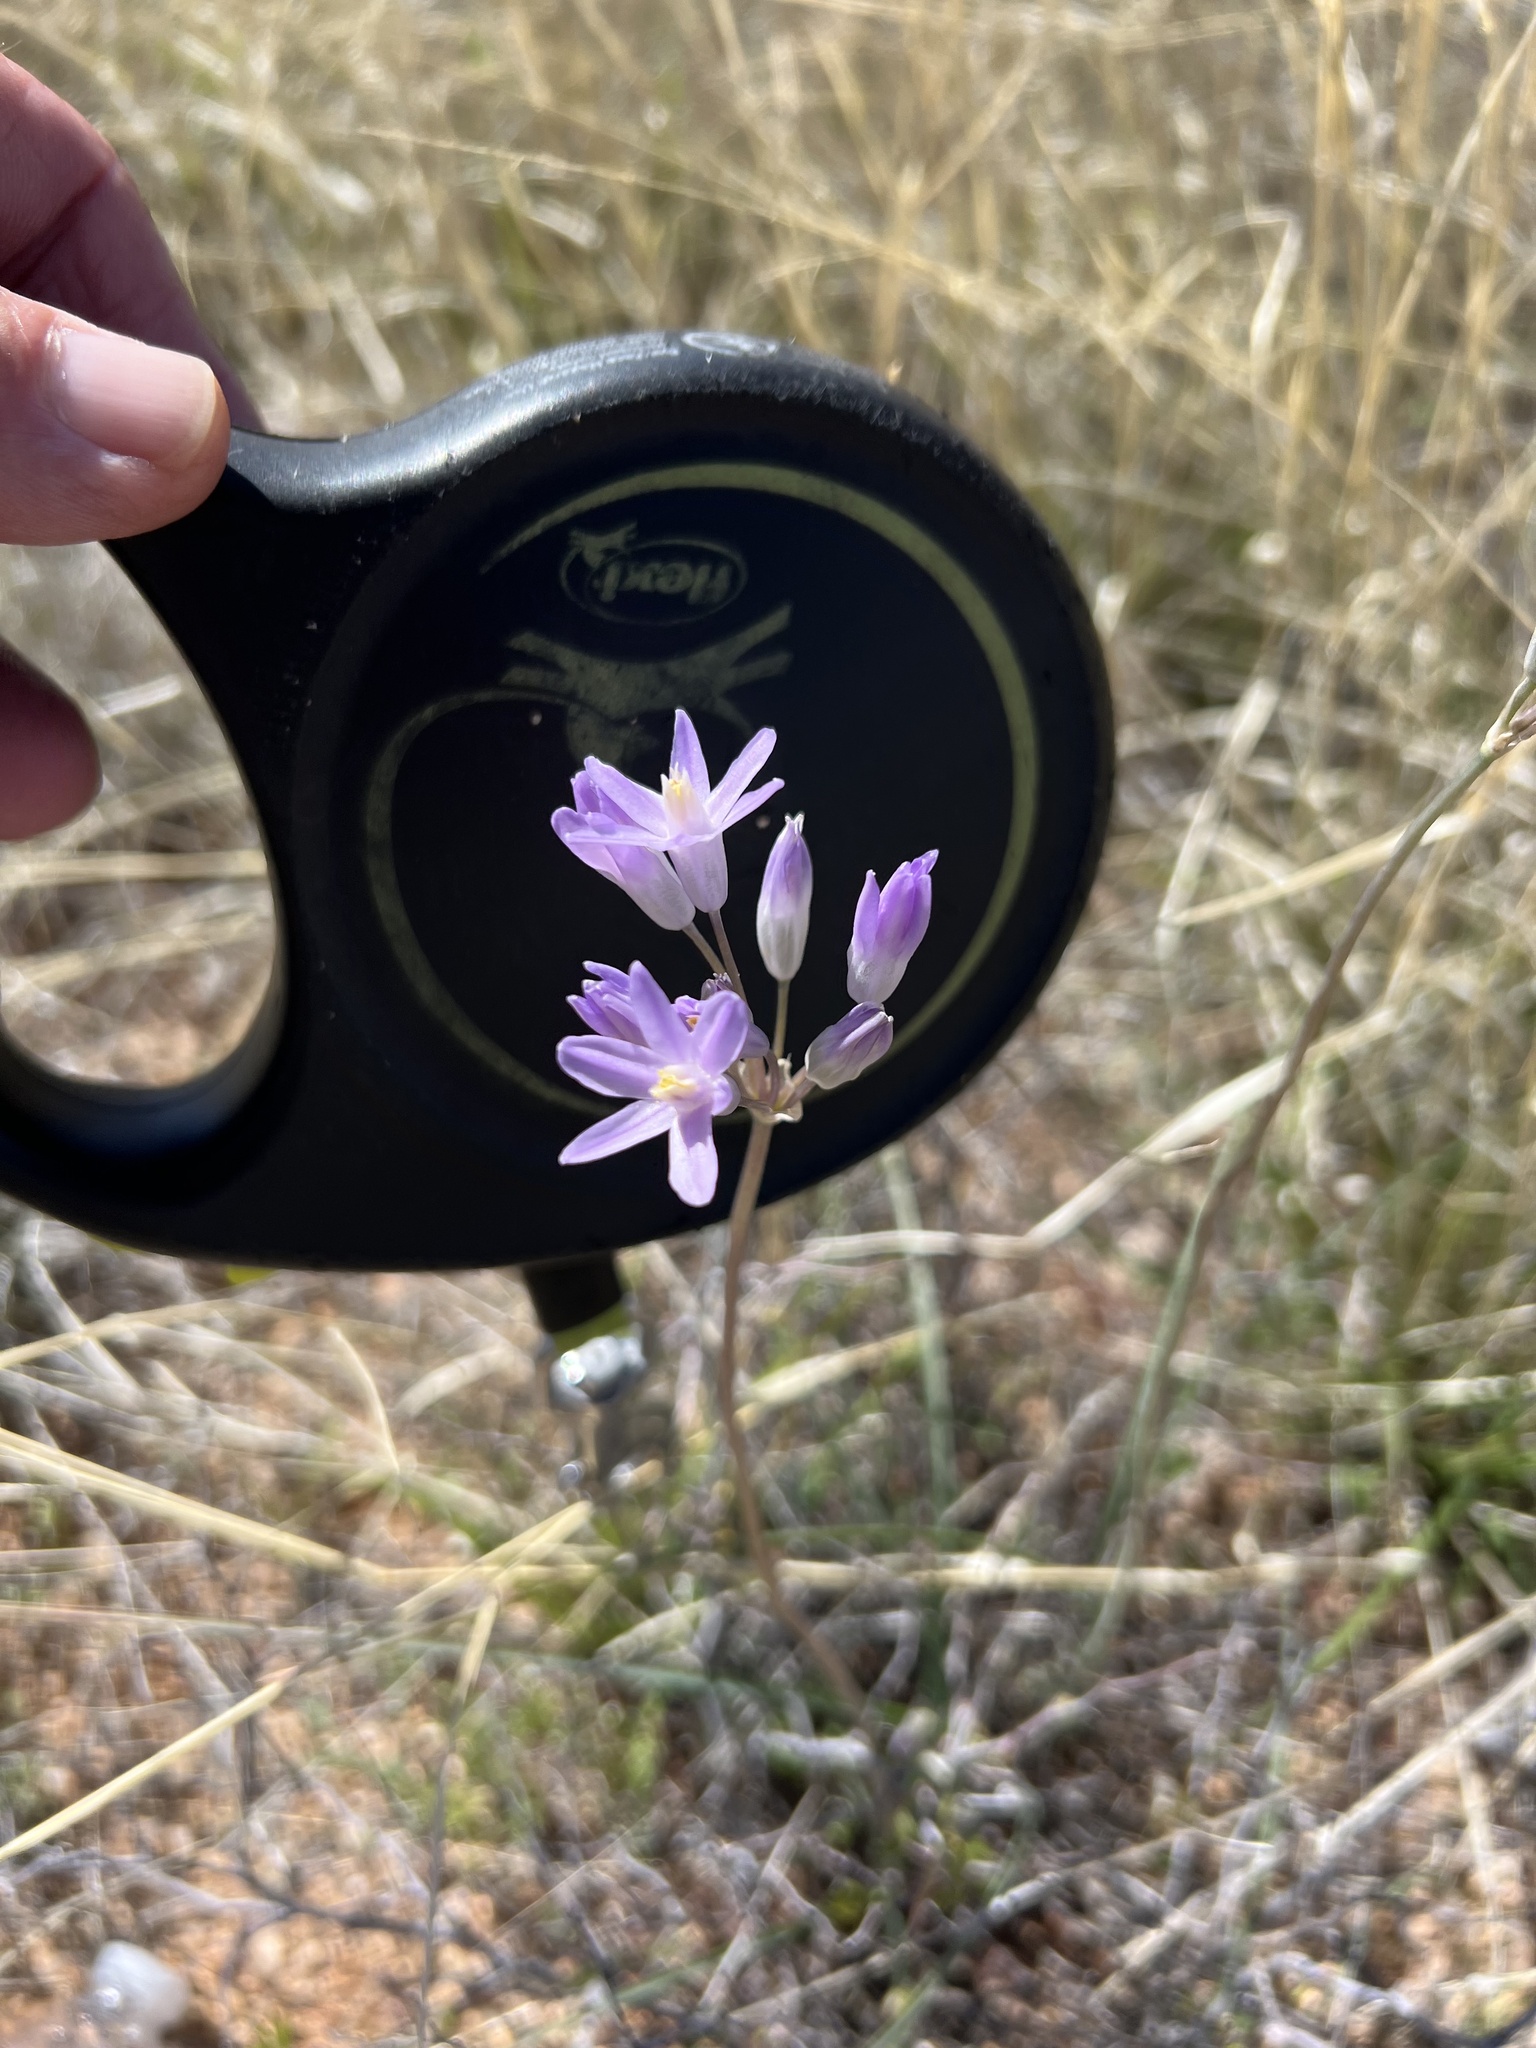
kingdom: Plantae
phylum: Tracheophyta
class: Liliopsida
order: Asparagales
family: Asparagaceae
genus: Dipterostemon
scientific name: Dipterostemon capitatus
